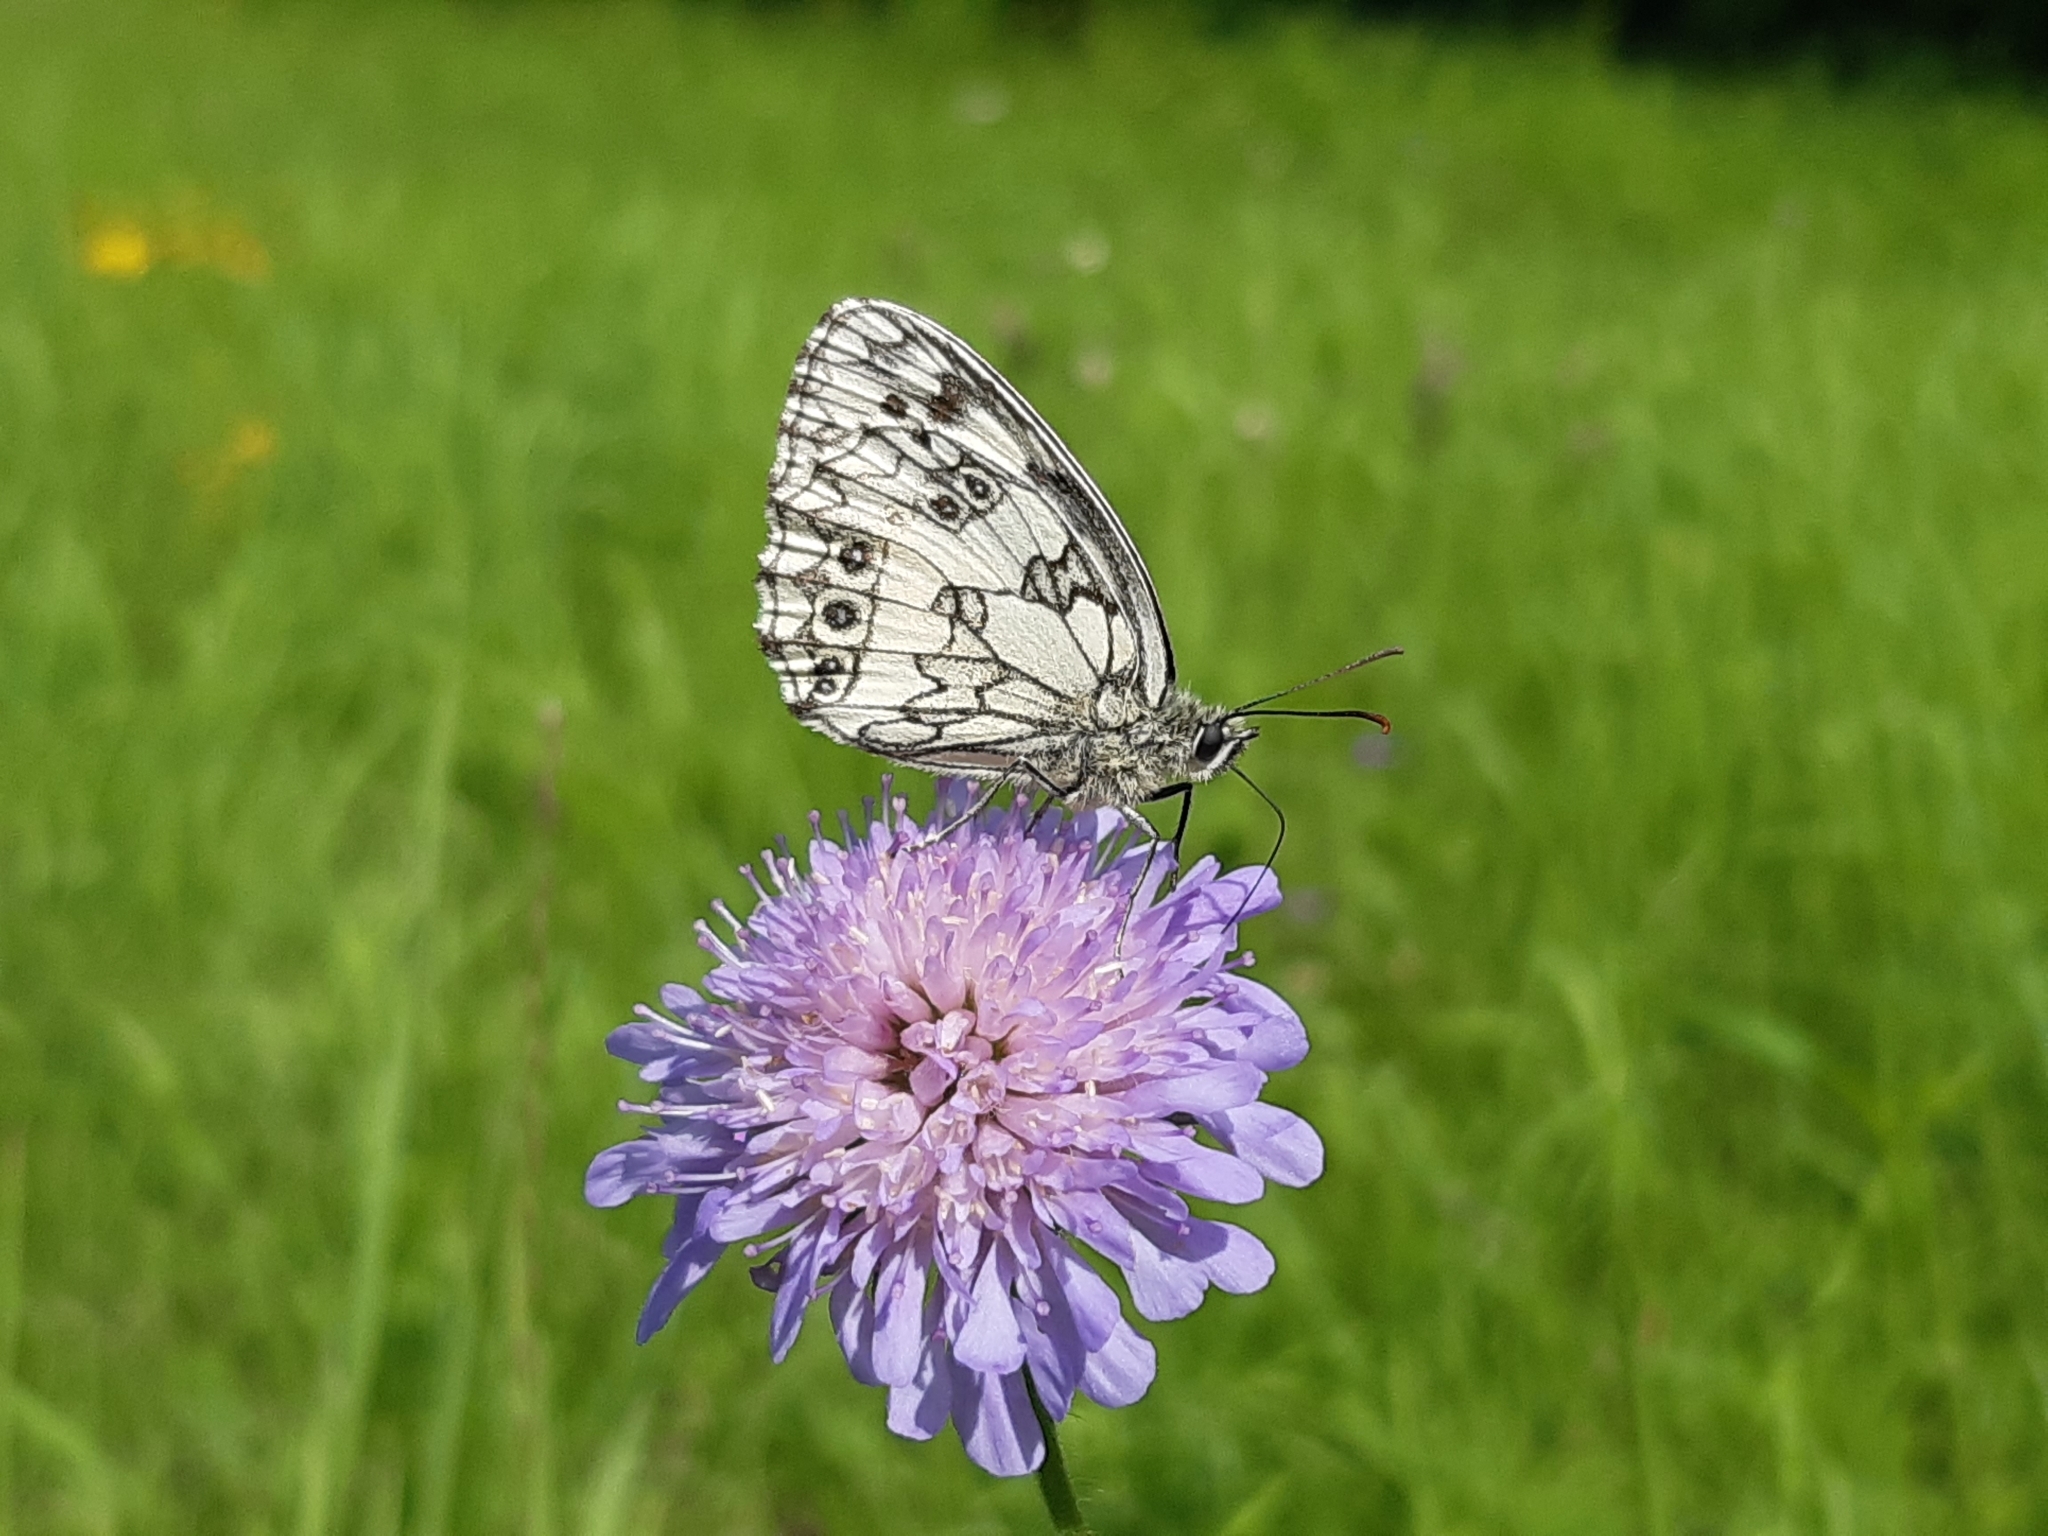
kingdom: Animalia
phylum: Arthropoda
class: Insecta
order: Lepidoptera
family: Nymphalidae
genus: Melanargia
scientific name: Melanargia galathea
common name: Marbled white
